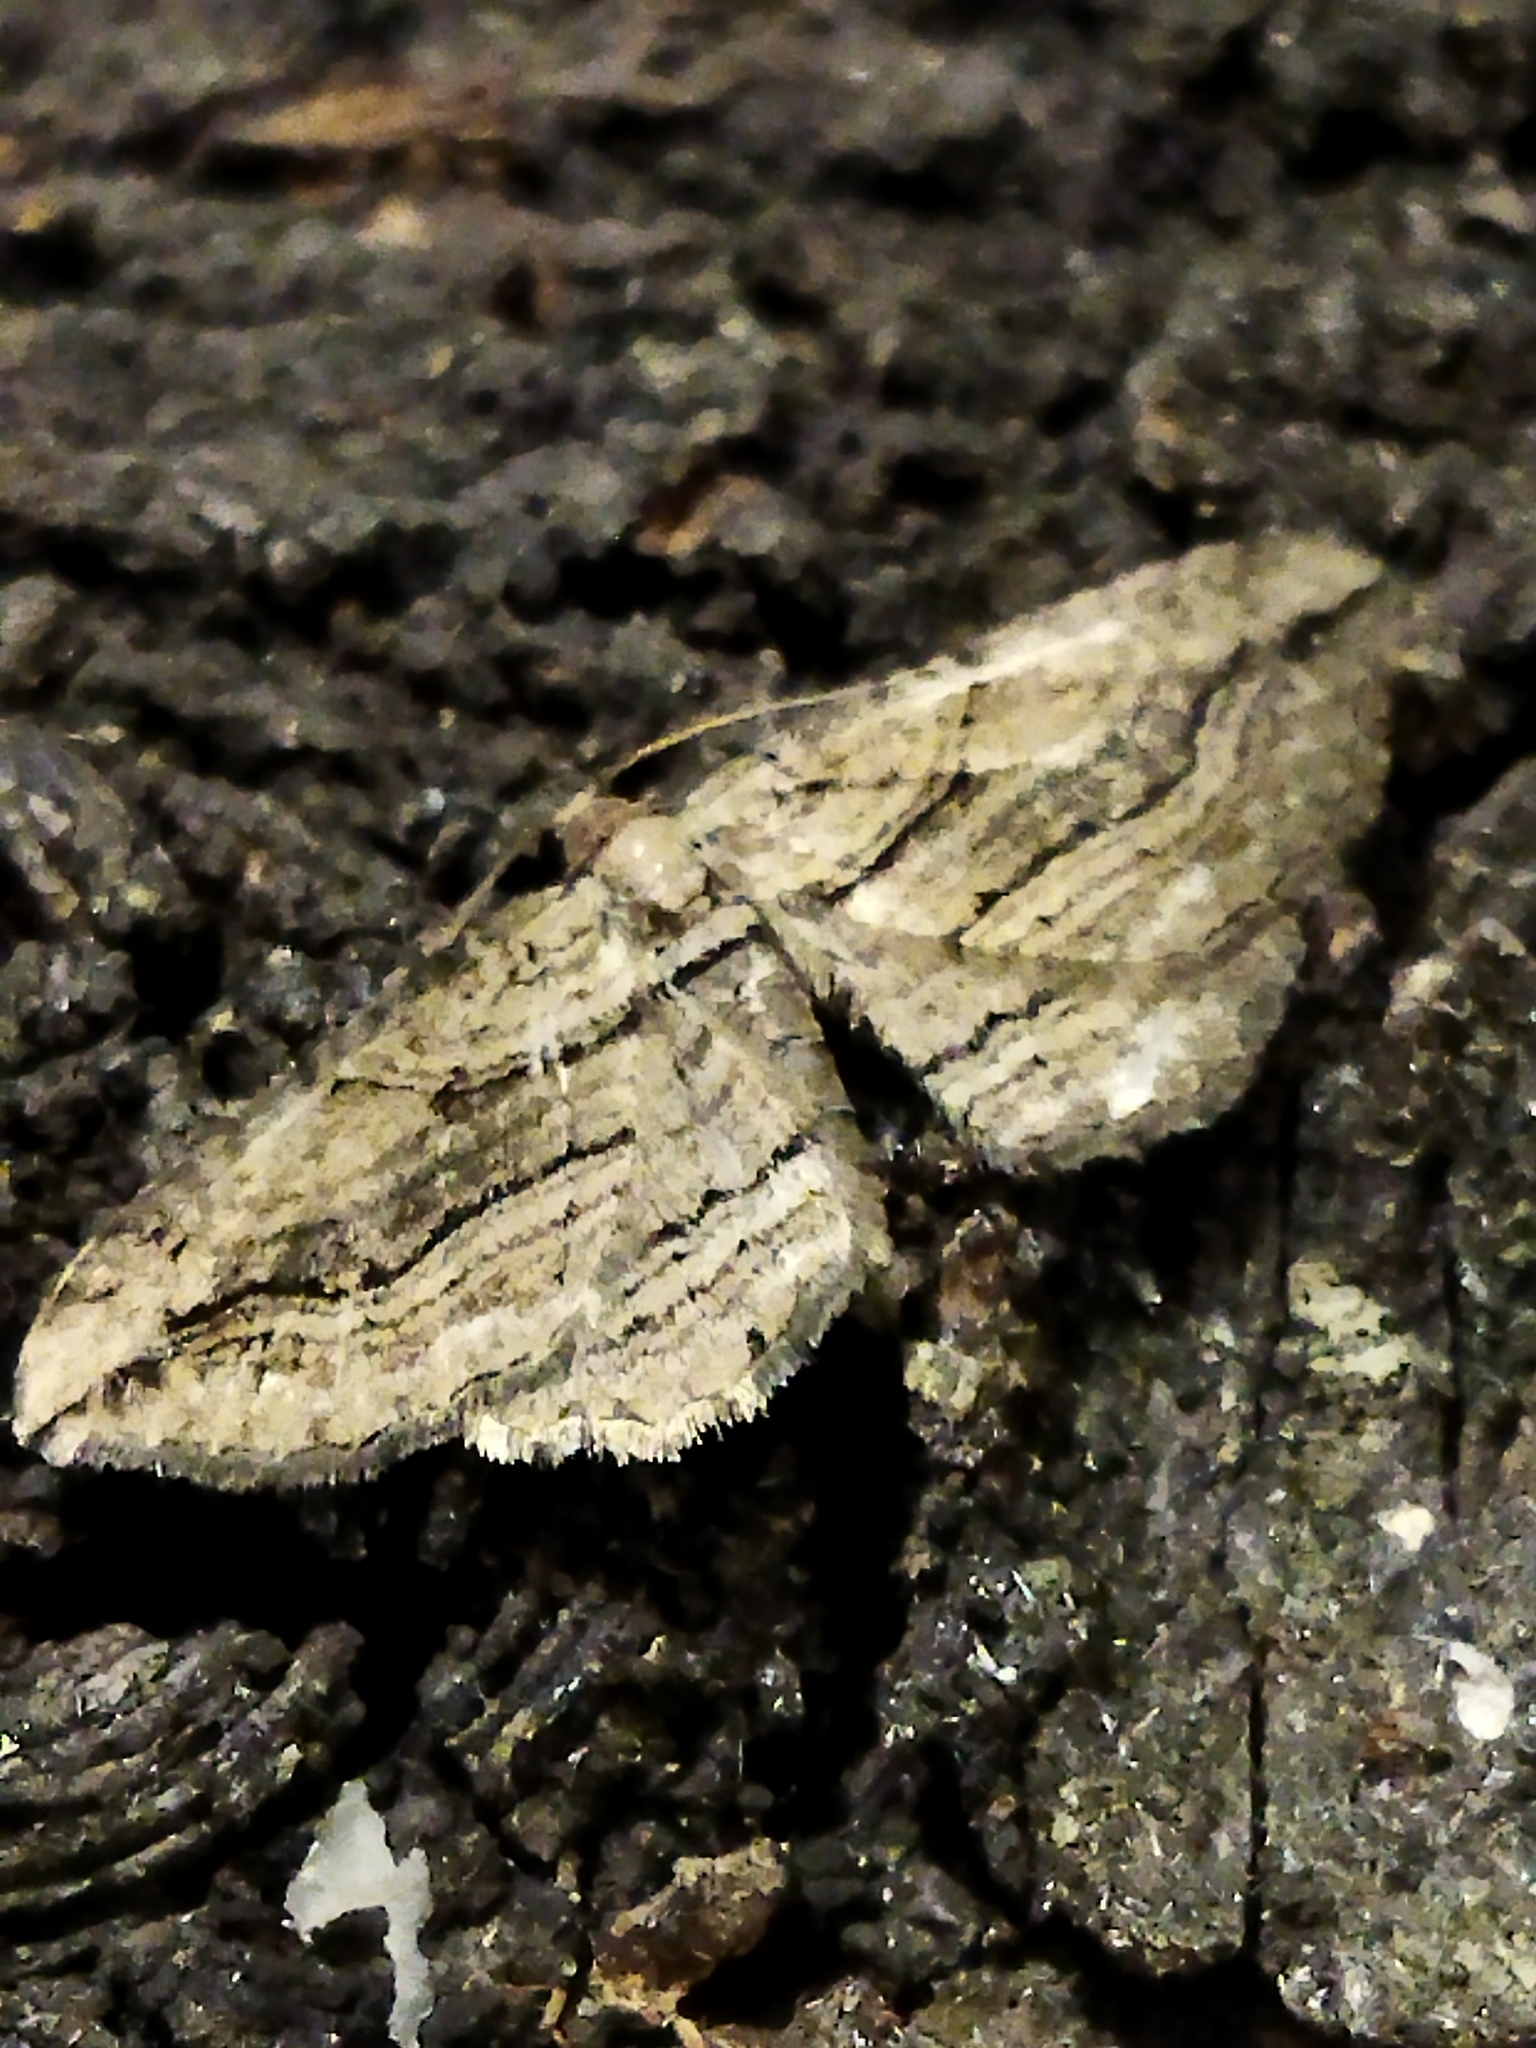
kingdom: Animalia
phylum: Arthropoda
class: Insecta
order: Lepidoptera
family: Geometridae
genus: Horisme
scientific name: Horisme corticata
